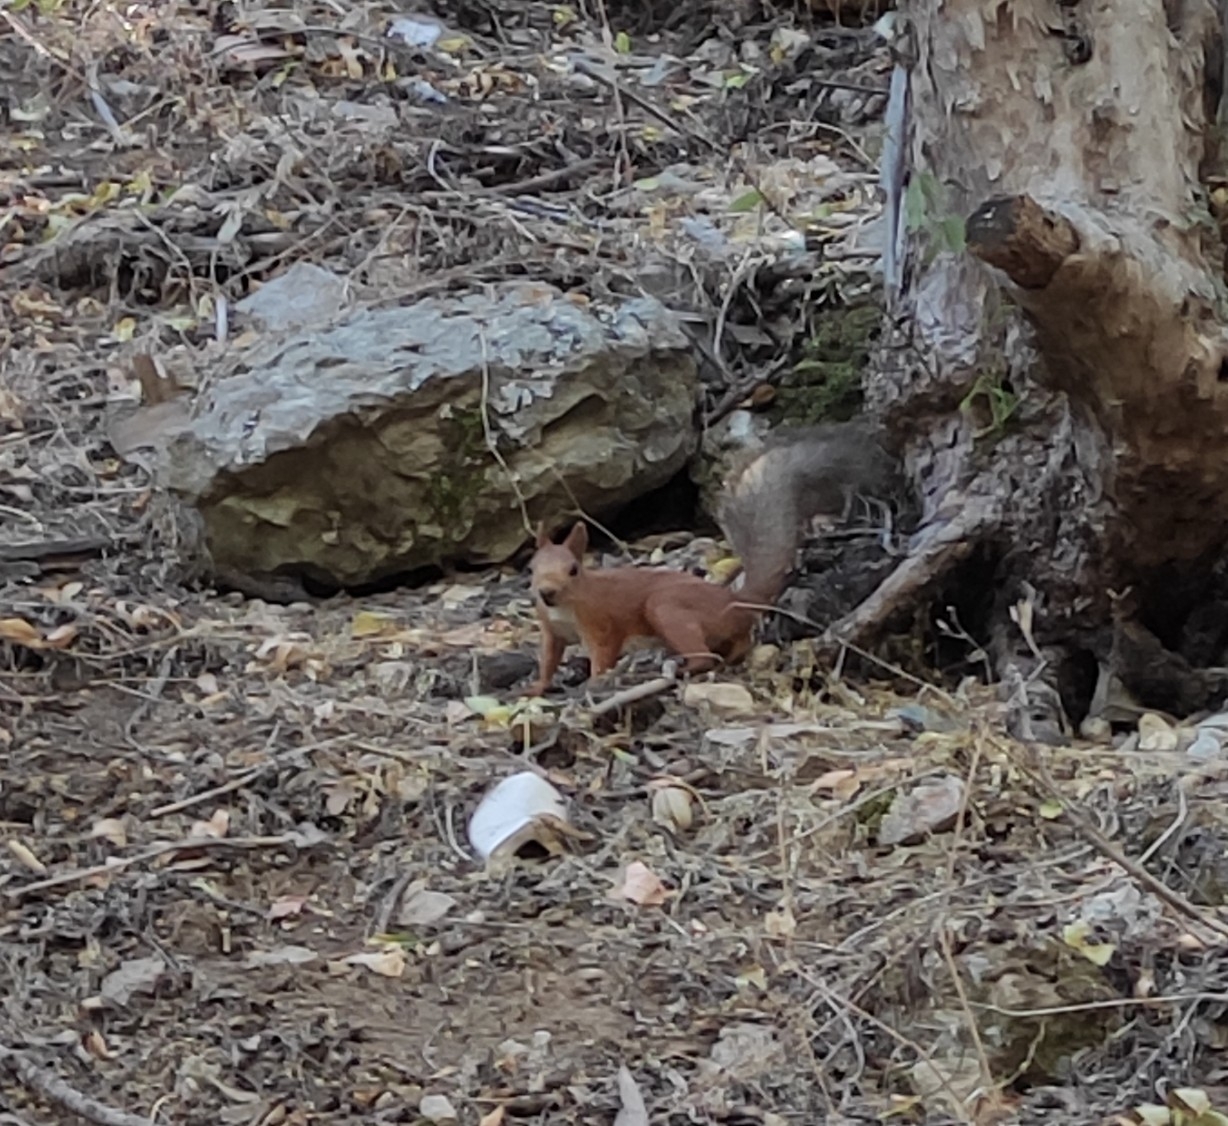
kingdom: Animalia
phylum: Chordata
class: Mammalia
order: Rodentia
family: Sciuridae
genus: Sciurus
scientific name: Sciurus vulgaris
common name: Eurasian red squirrel
